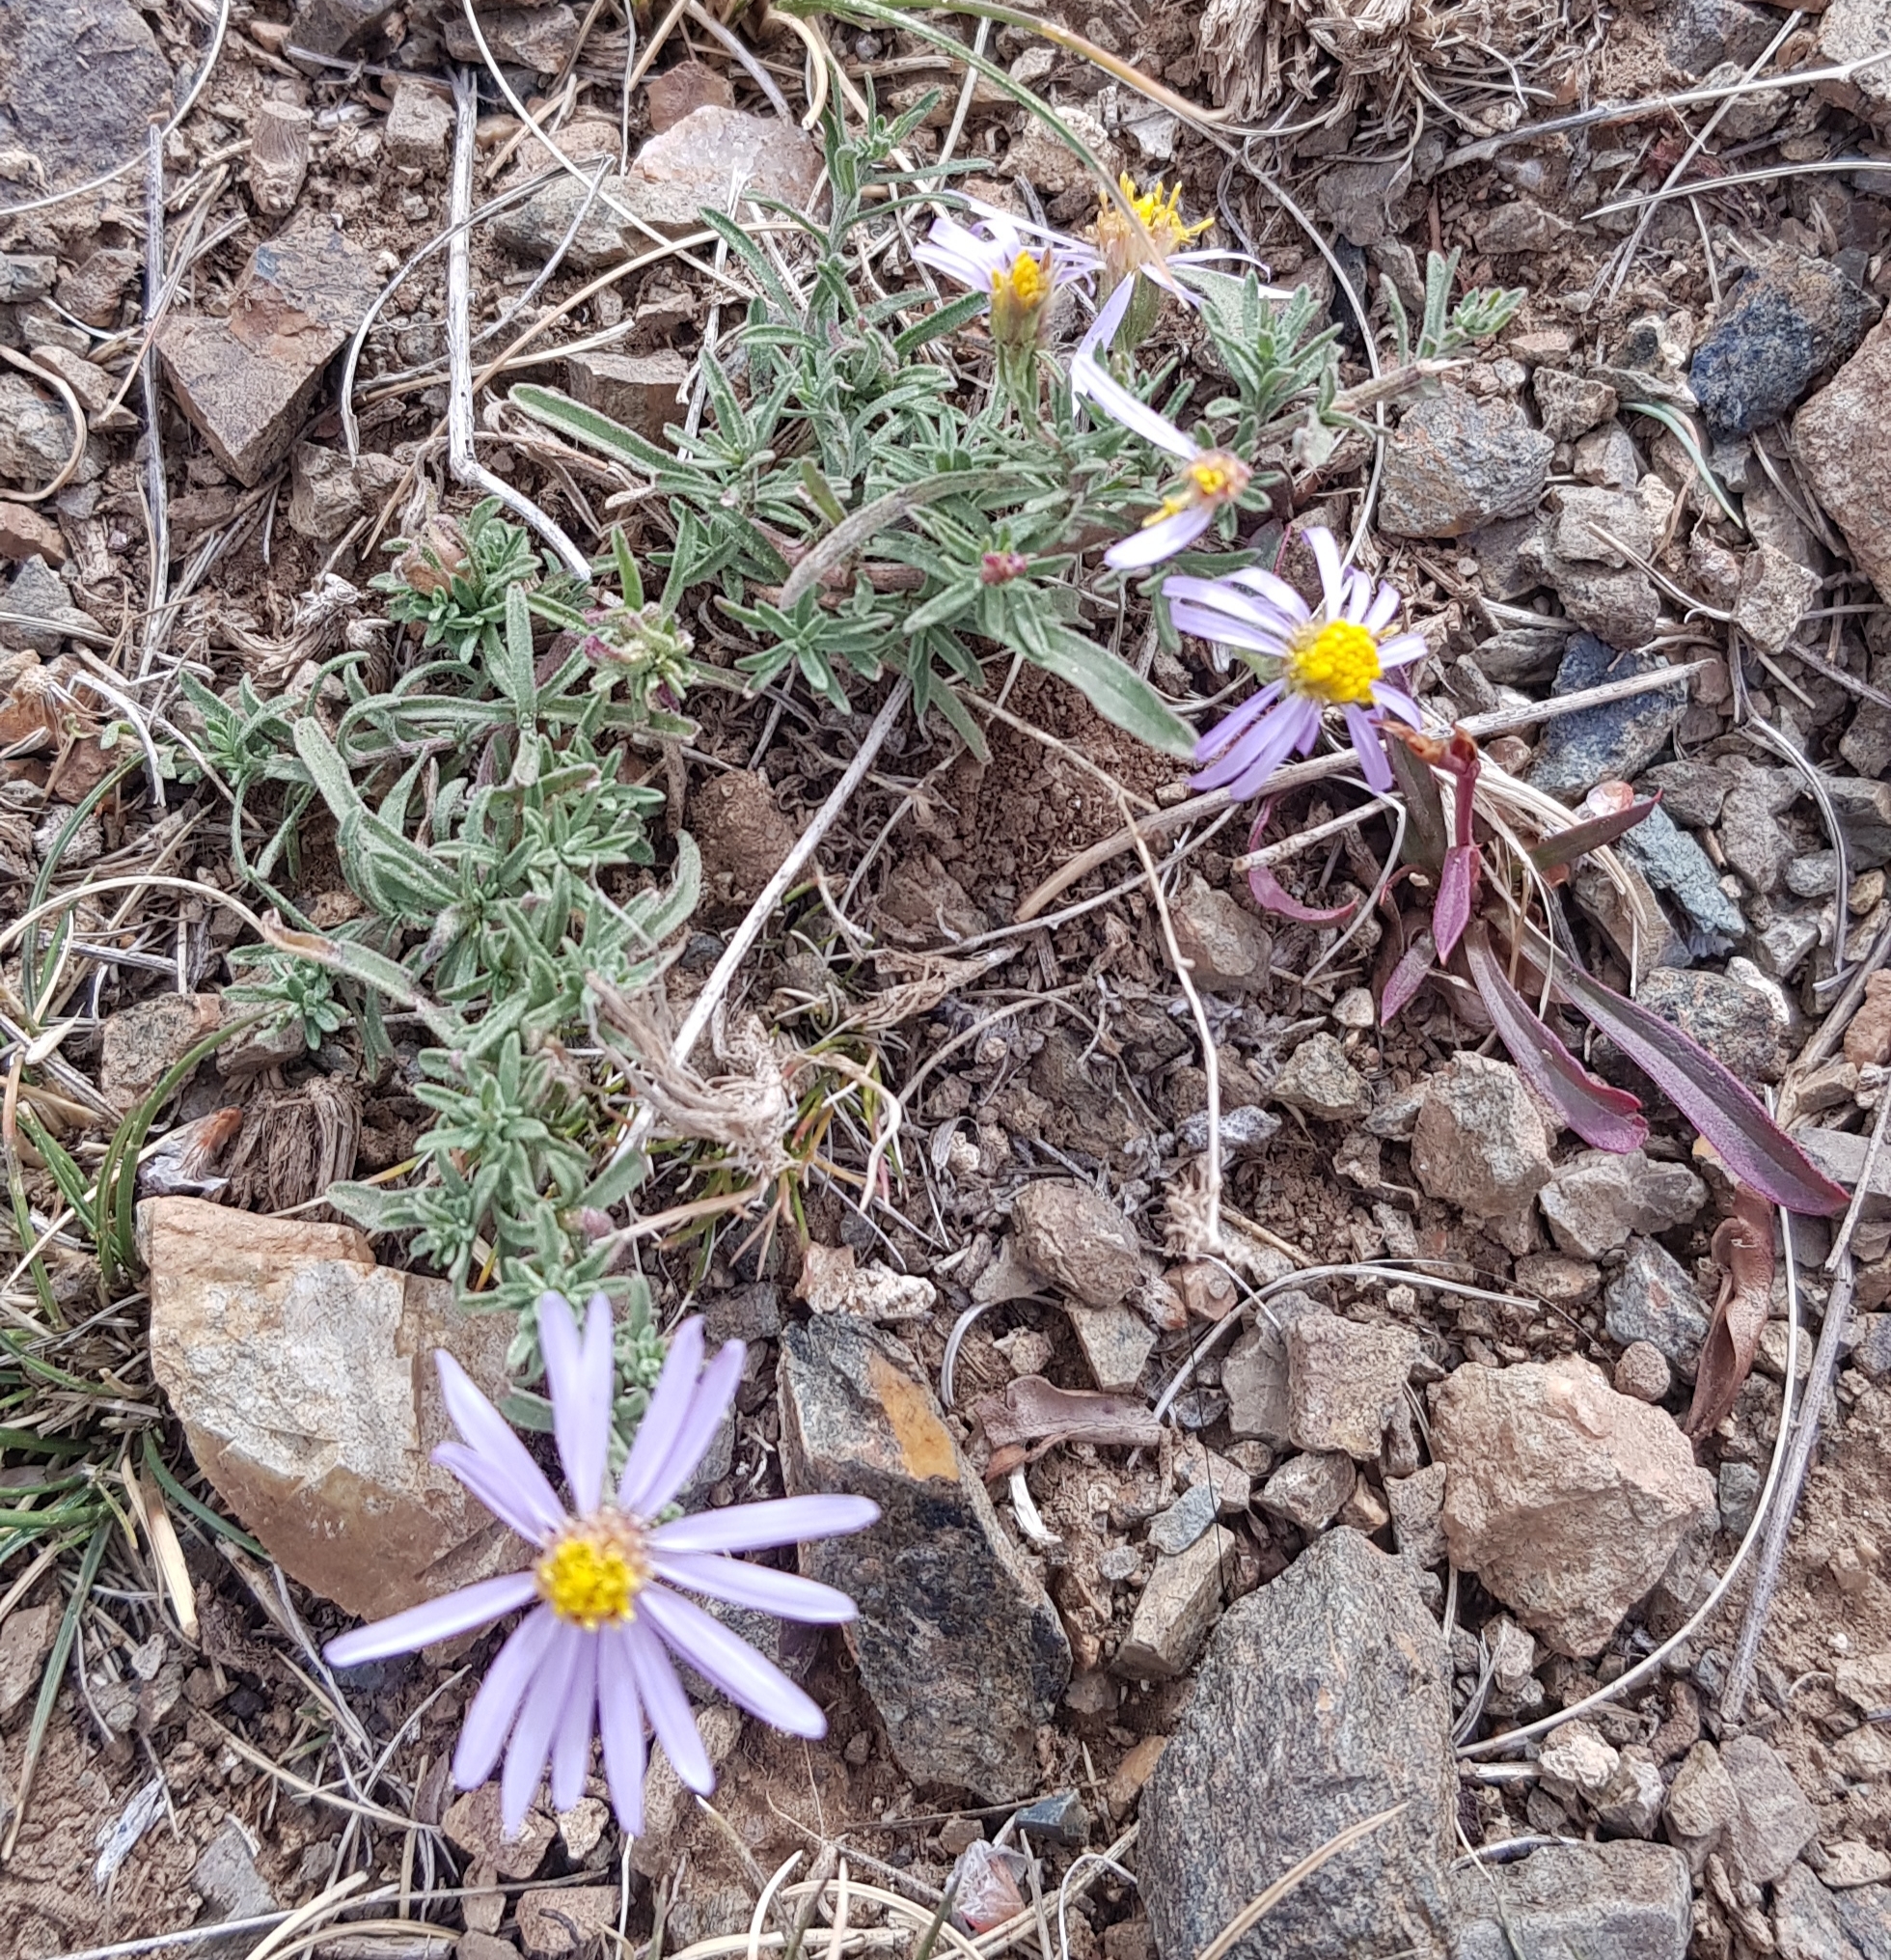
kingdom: Plantae
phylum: Tracheophyta
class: Magnoliopsida
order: Asterales
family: Asteraceae
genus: Heteropappus
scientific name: Heteropappus altaicus
